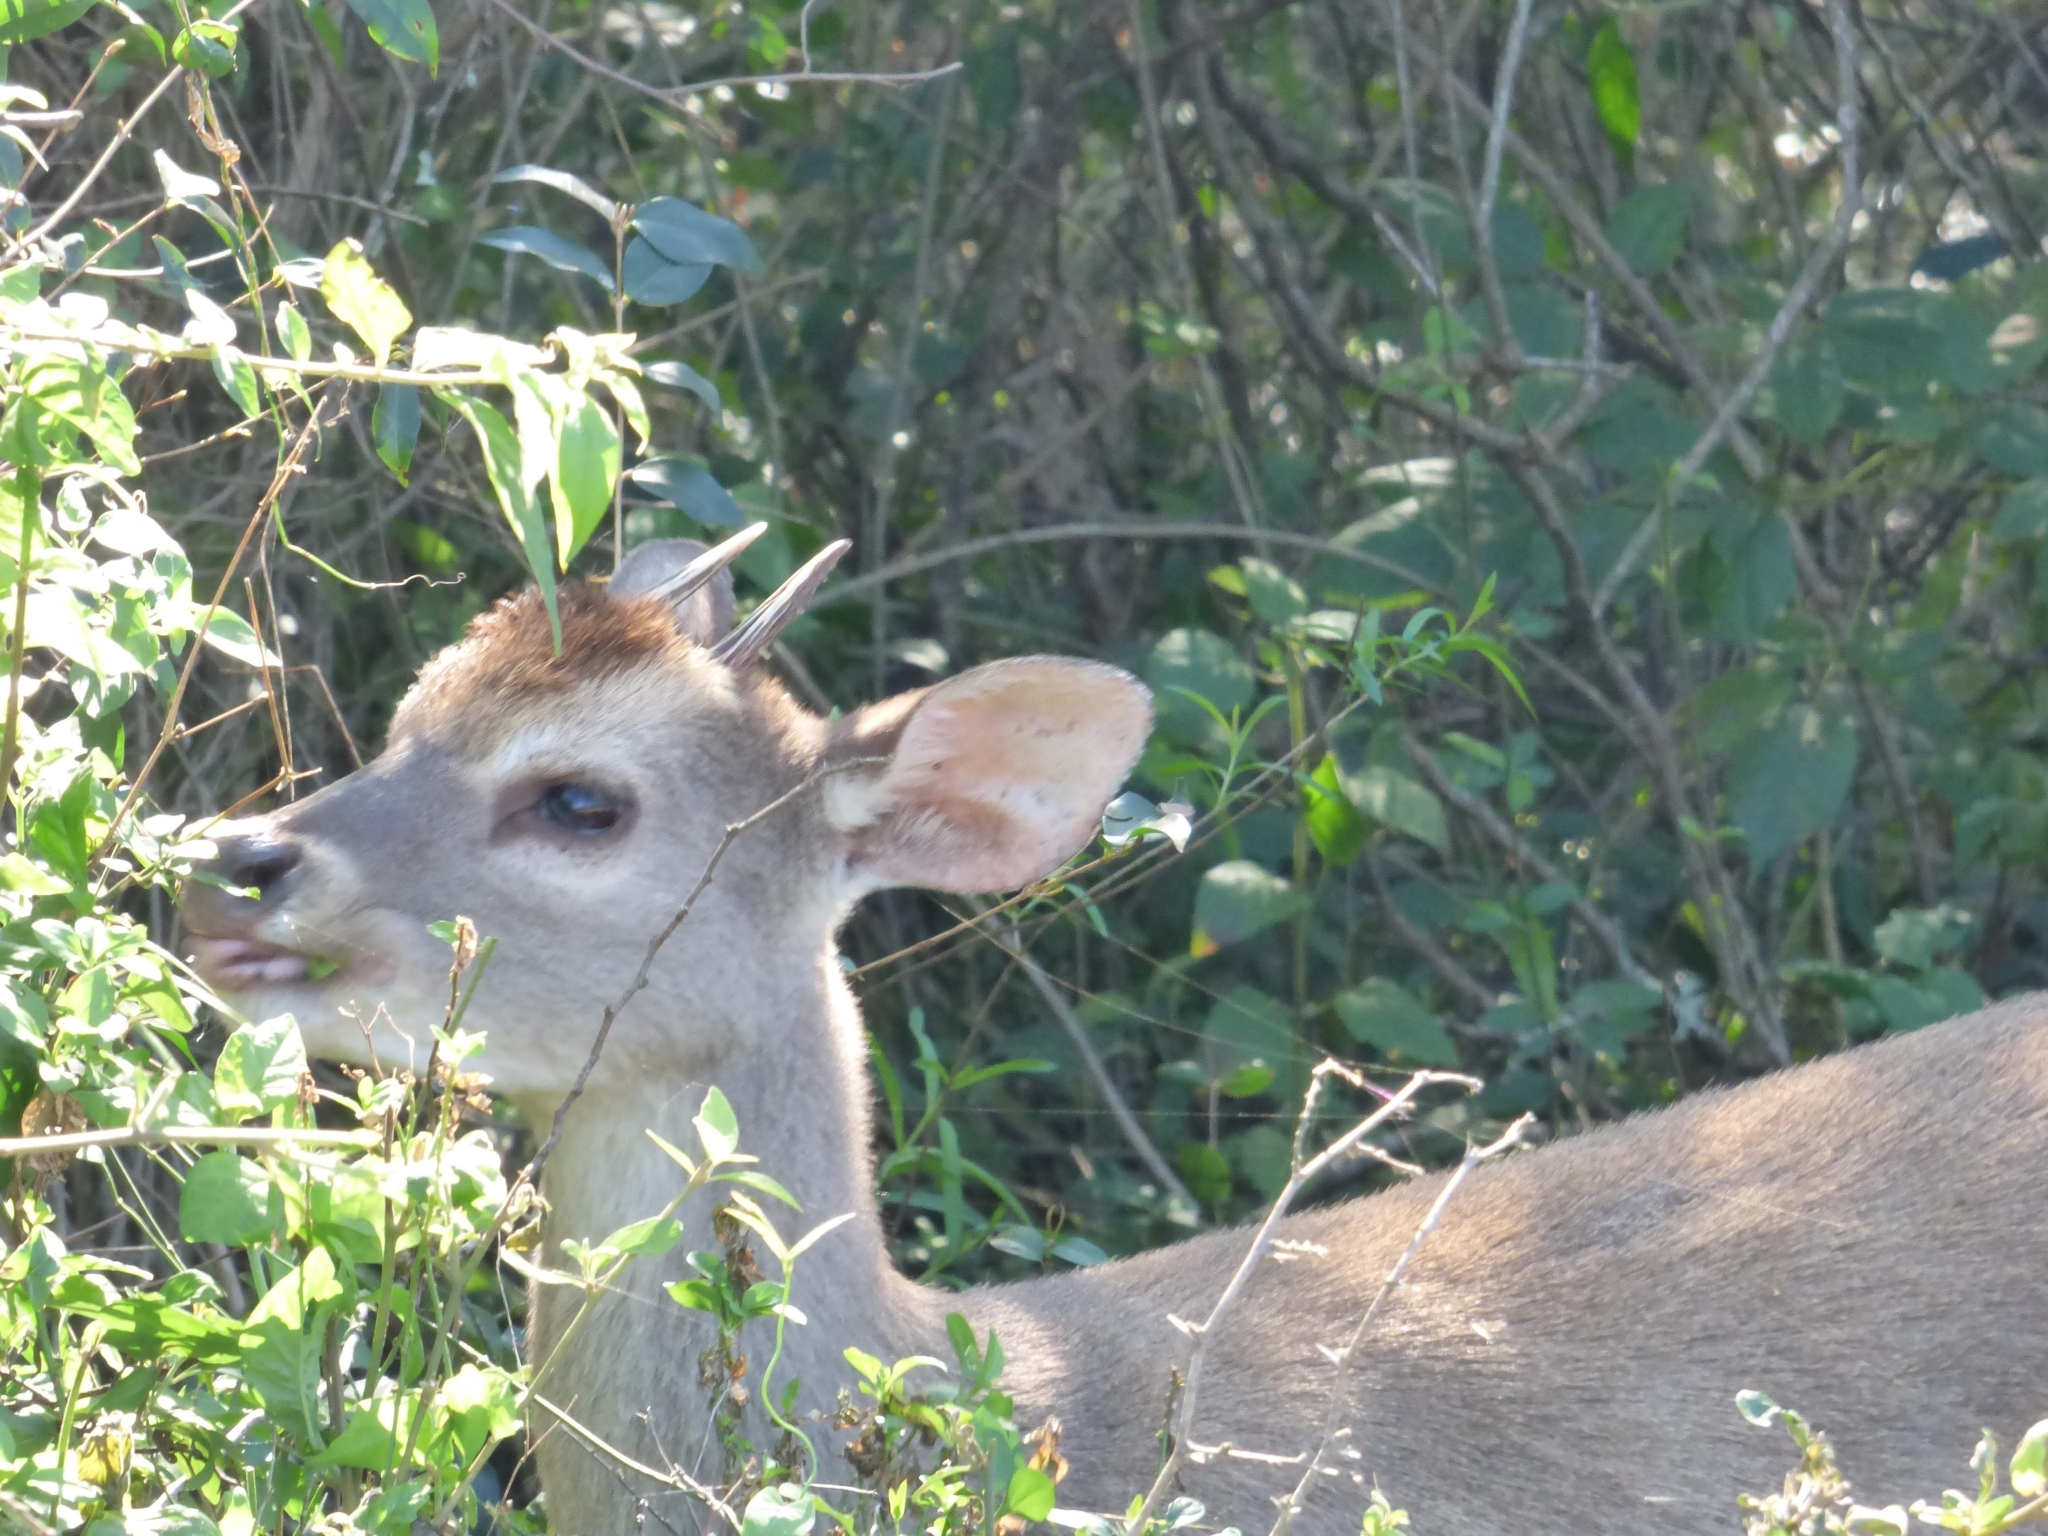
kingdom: Animalia
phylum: Chordata
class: Mammalia
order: Artiodactyla
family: Cervidae
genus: Mazama
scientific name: Mazama gouazoubira
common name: Gray brocket
